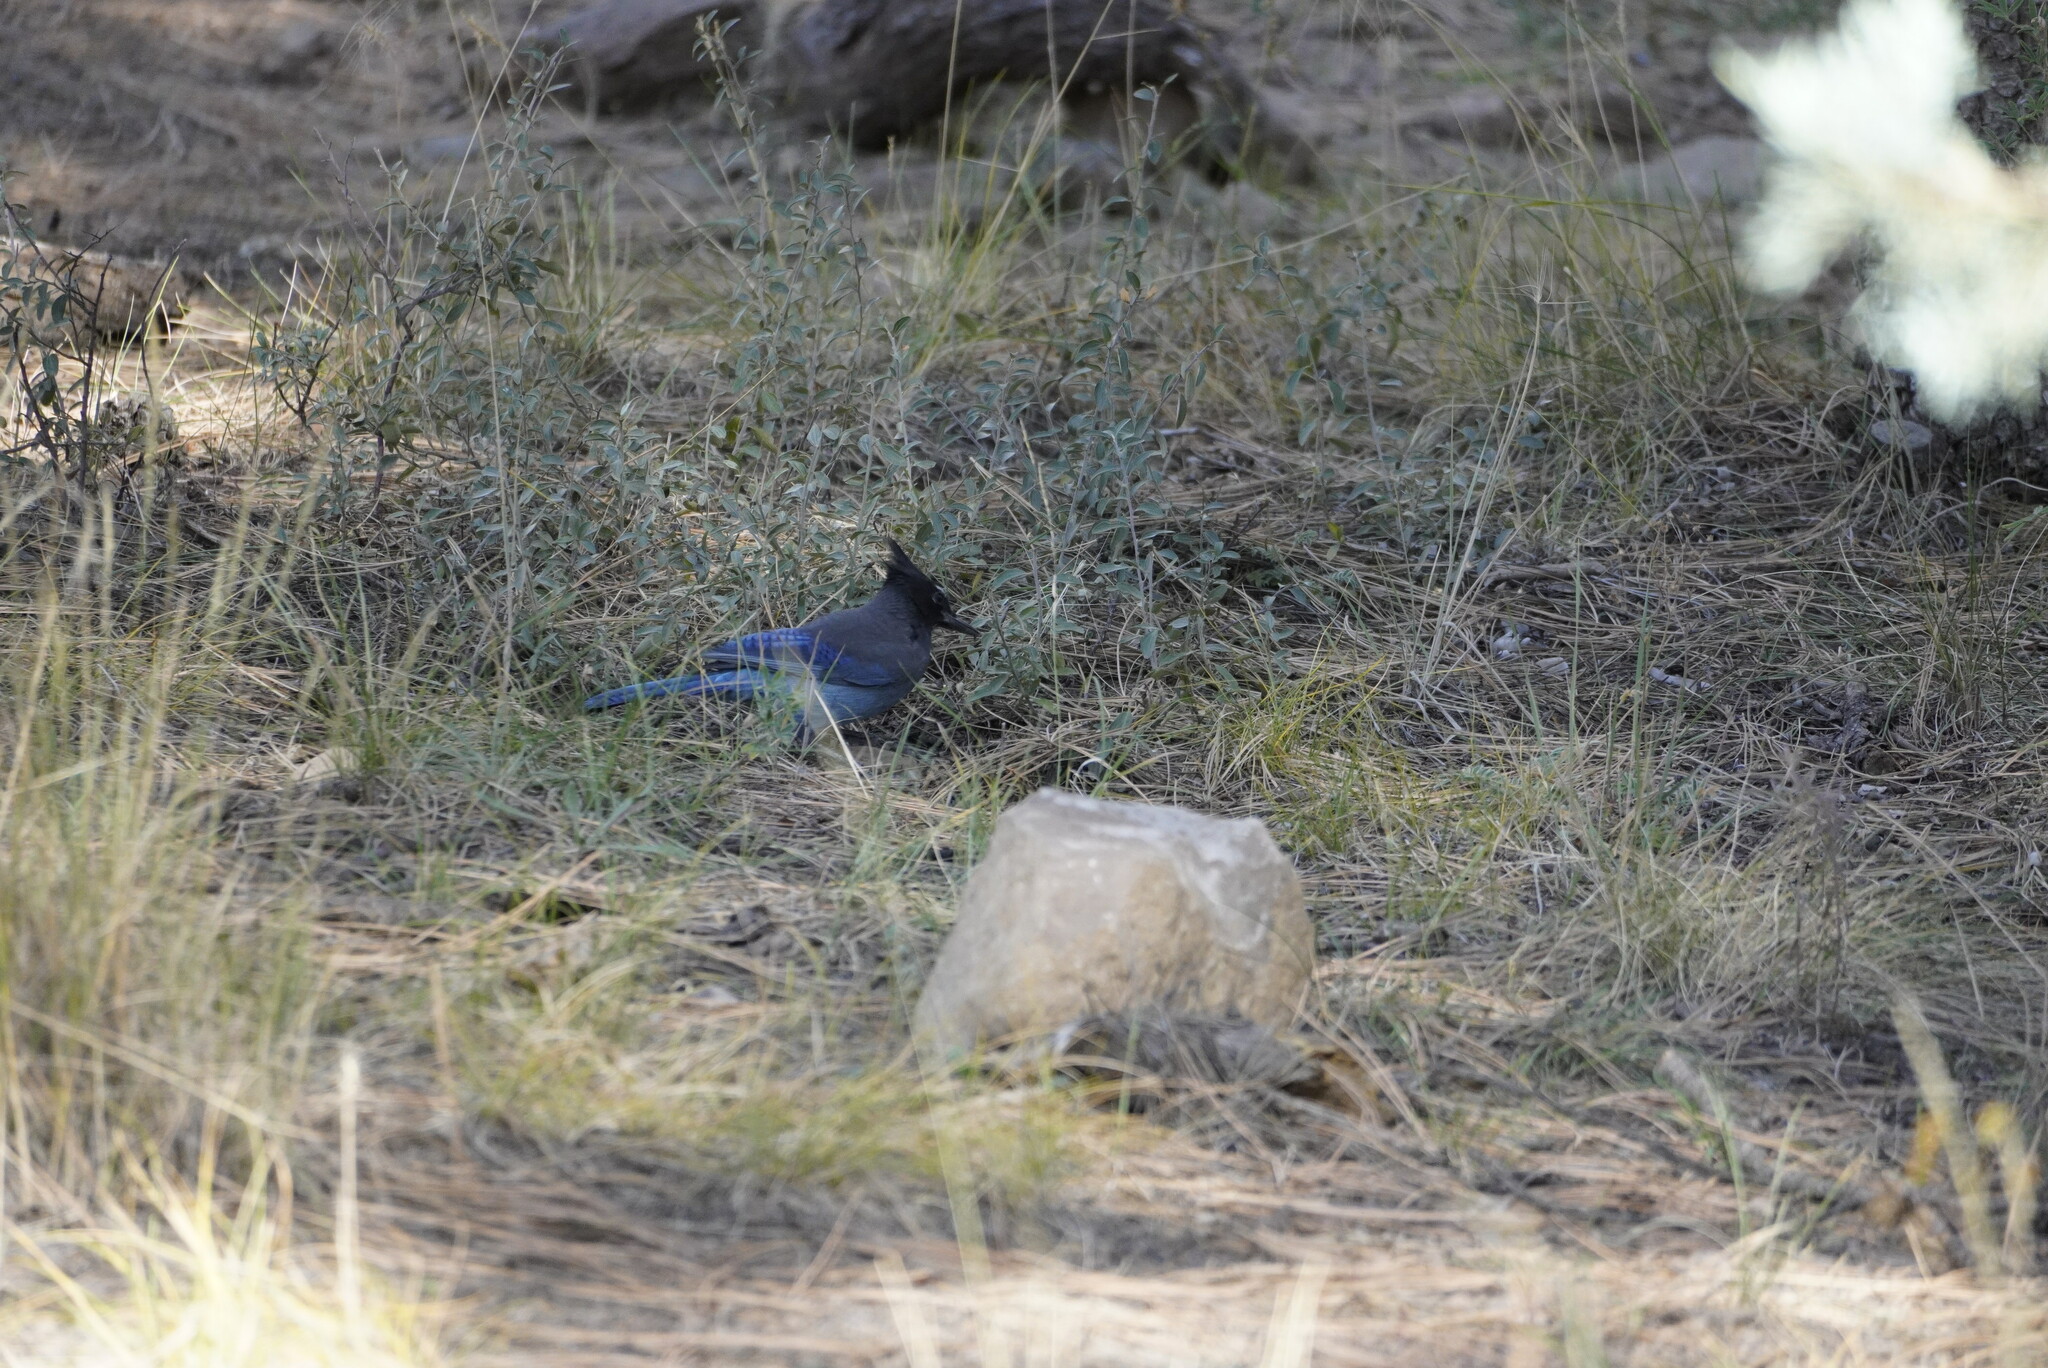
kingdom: Animalia
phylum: Chordata
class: Aves
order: Passeriformes
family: Corvidae
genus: Cyanocitta
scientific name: Cyanocitta stelleri
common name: Steller's jay
